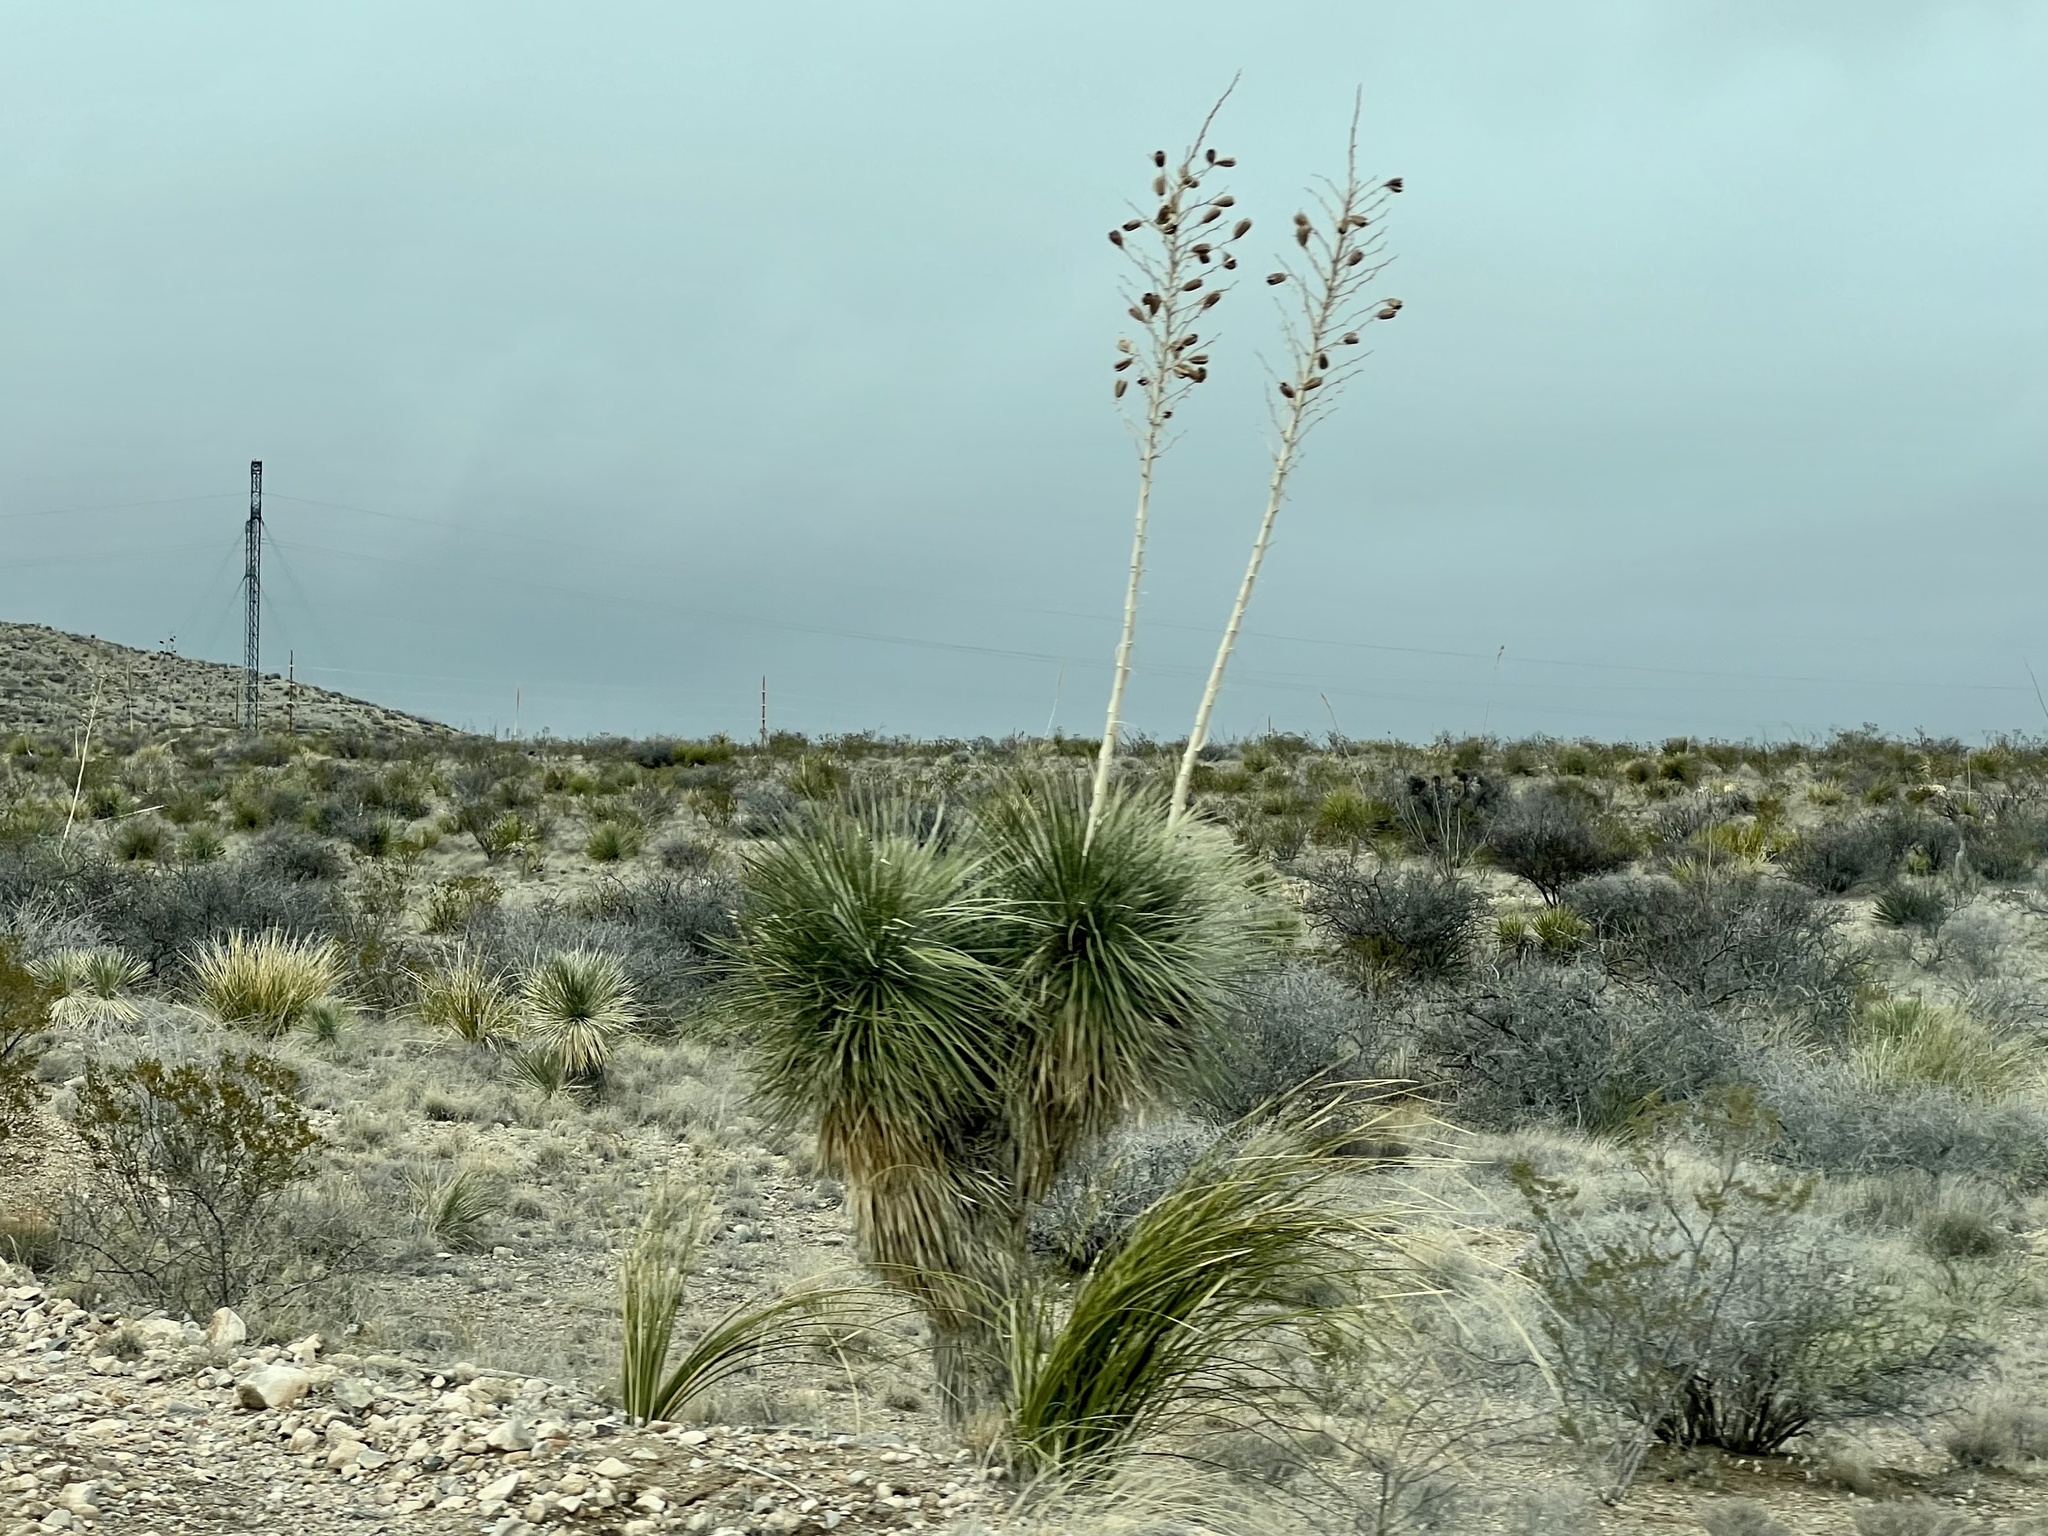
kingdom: Plantae
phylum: Tracheophyta
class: Liliopsida
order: Asparagales
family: Asparagaceae
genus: Yucca
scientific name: Yucca elata
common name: Palmella
